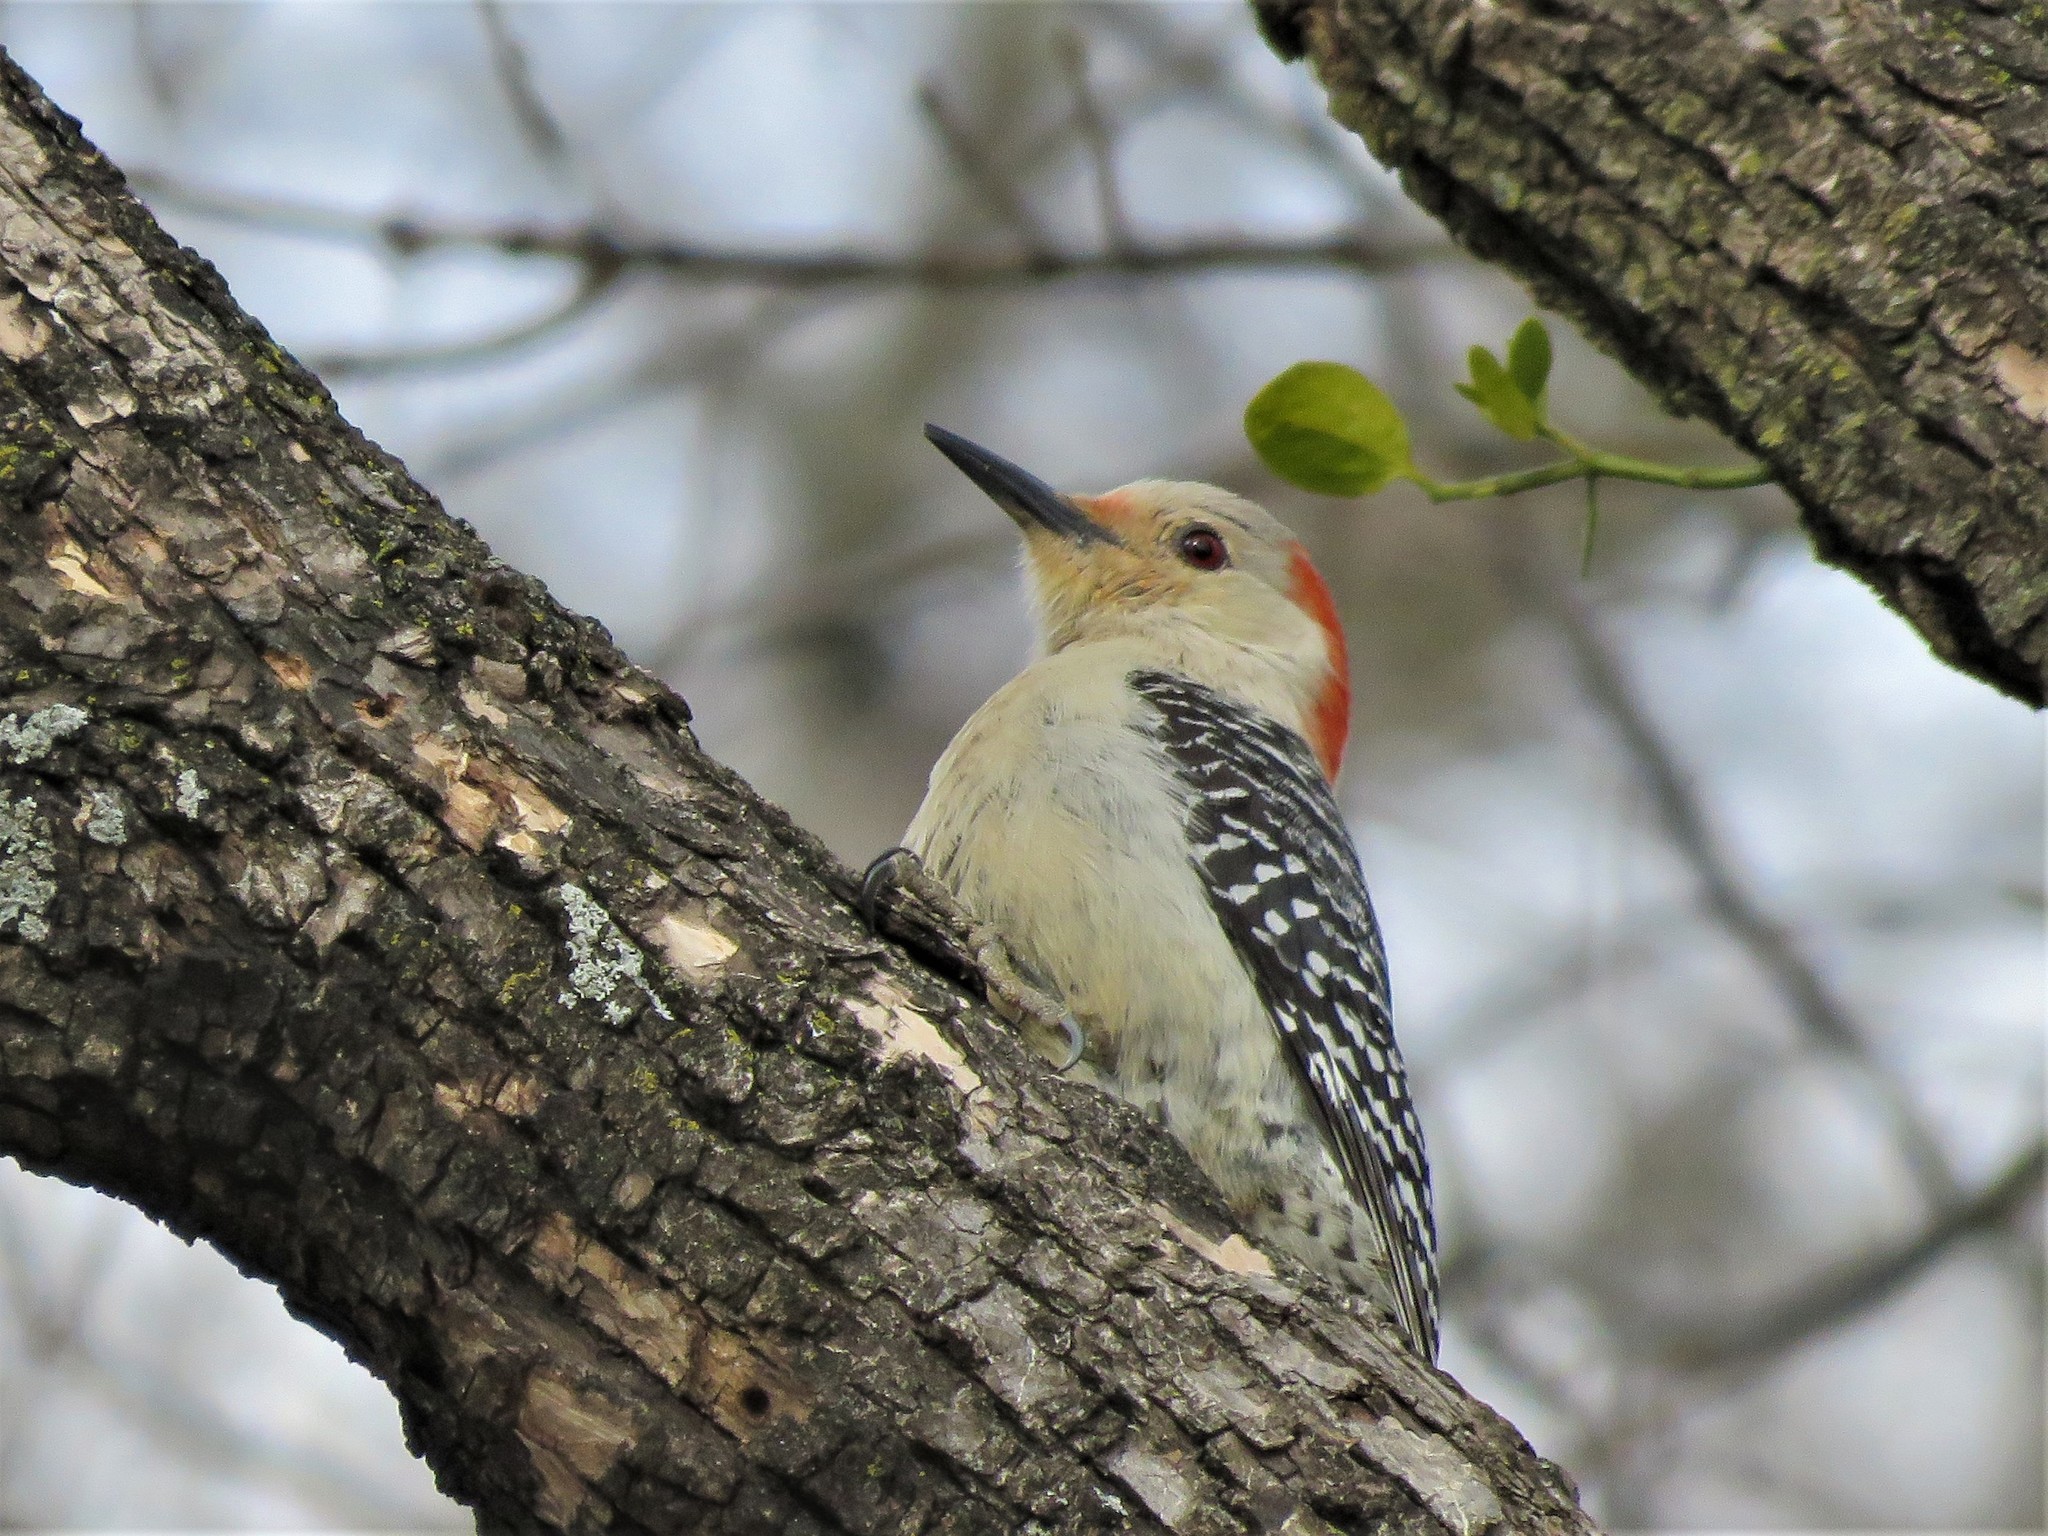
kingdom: Animalia
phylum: Chordata
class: Aves
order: Piciformes
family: Picidae
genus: Melanerpes
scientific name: Melanerpes carolinus
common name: Red-bellied woodpecker
